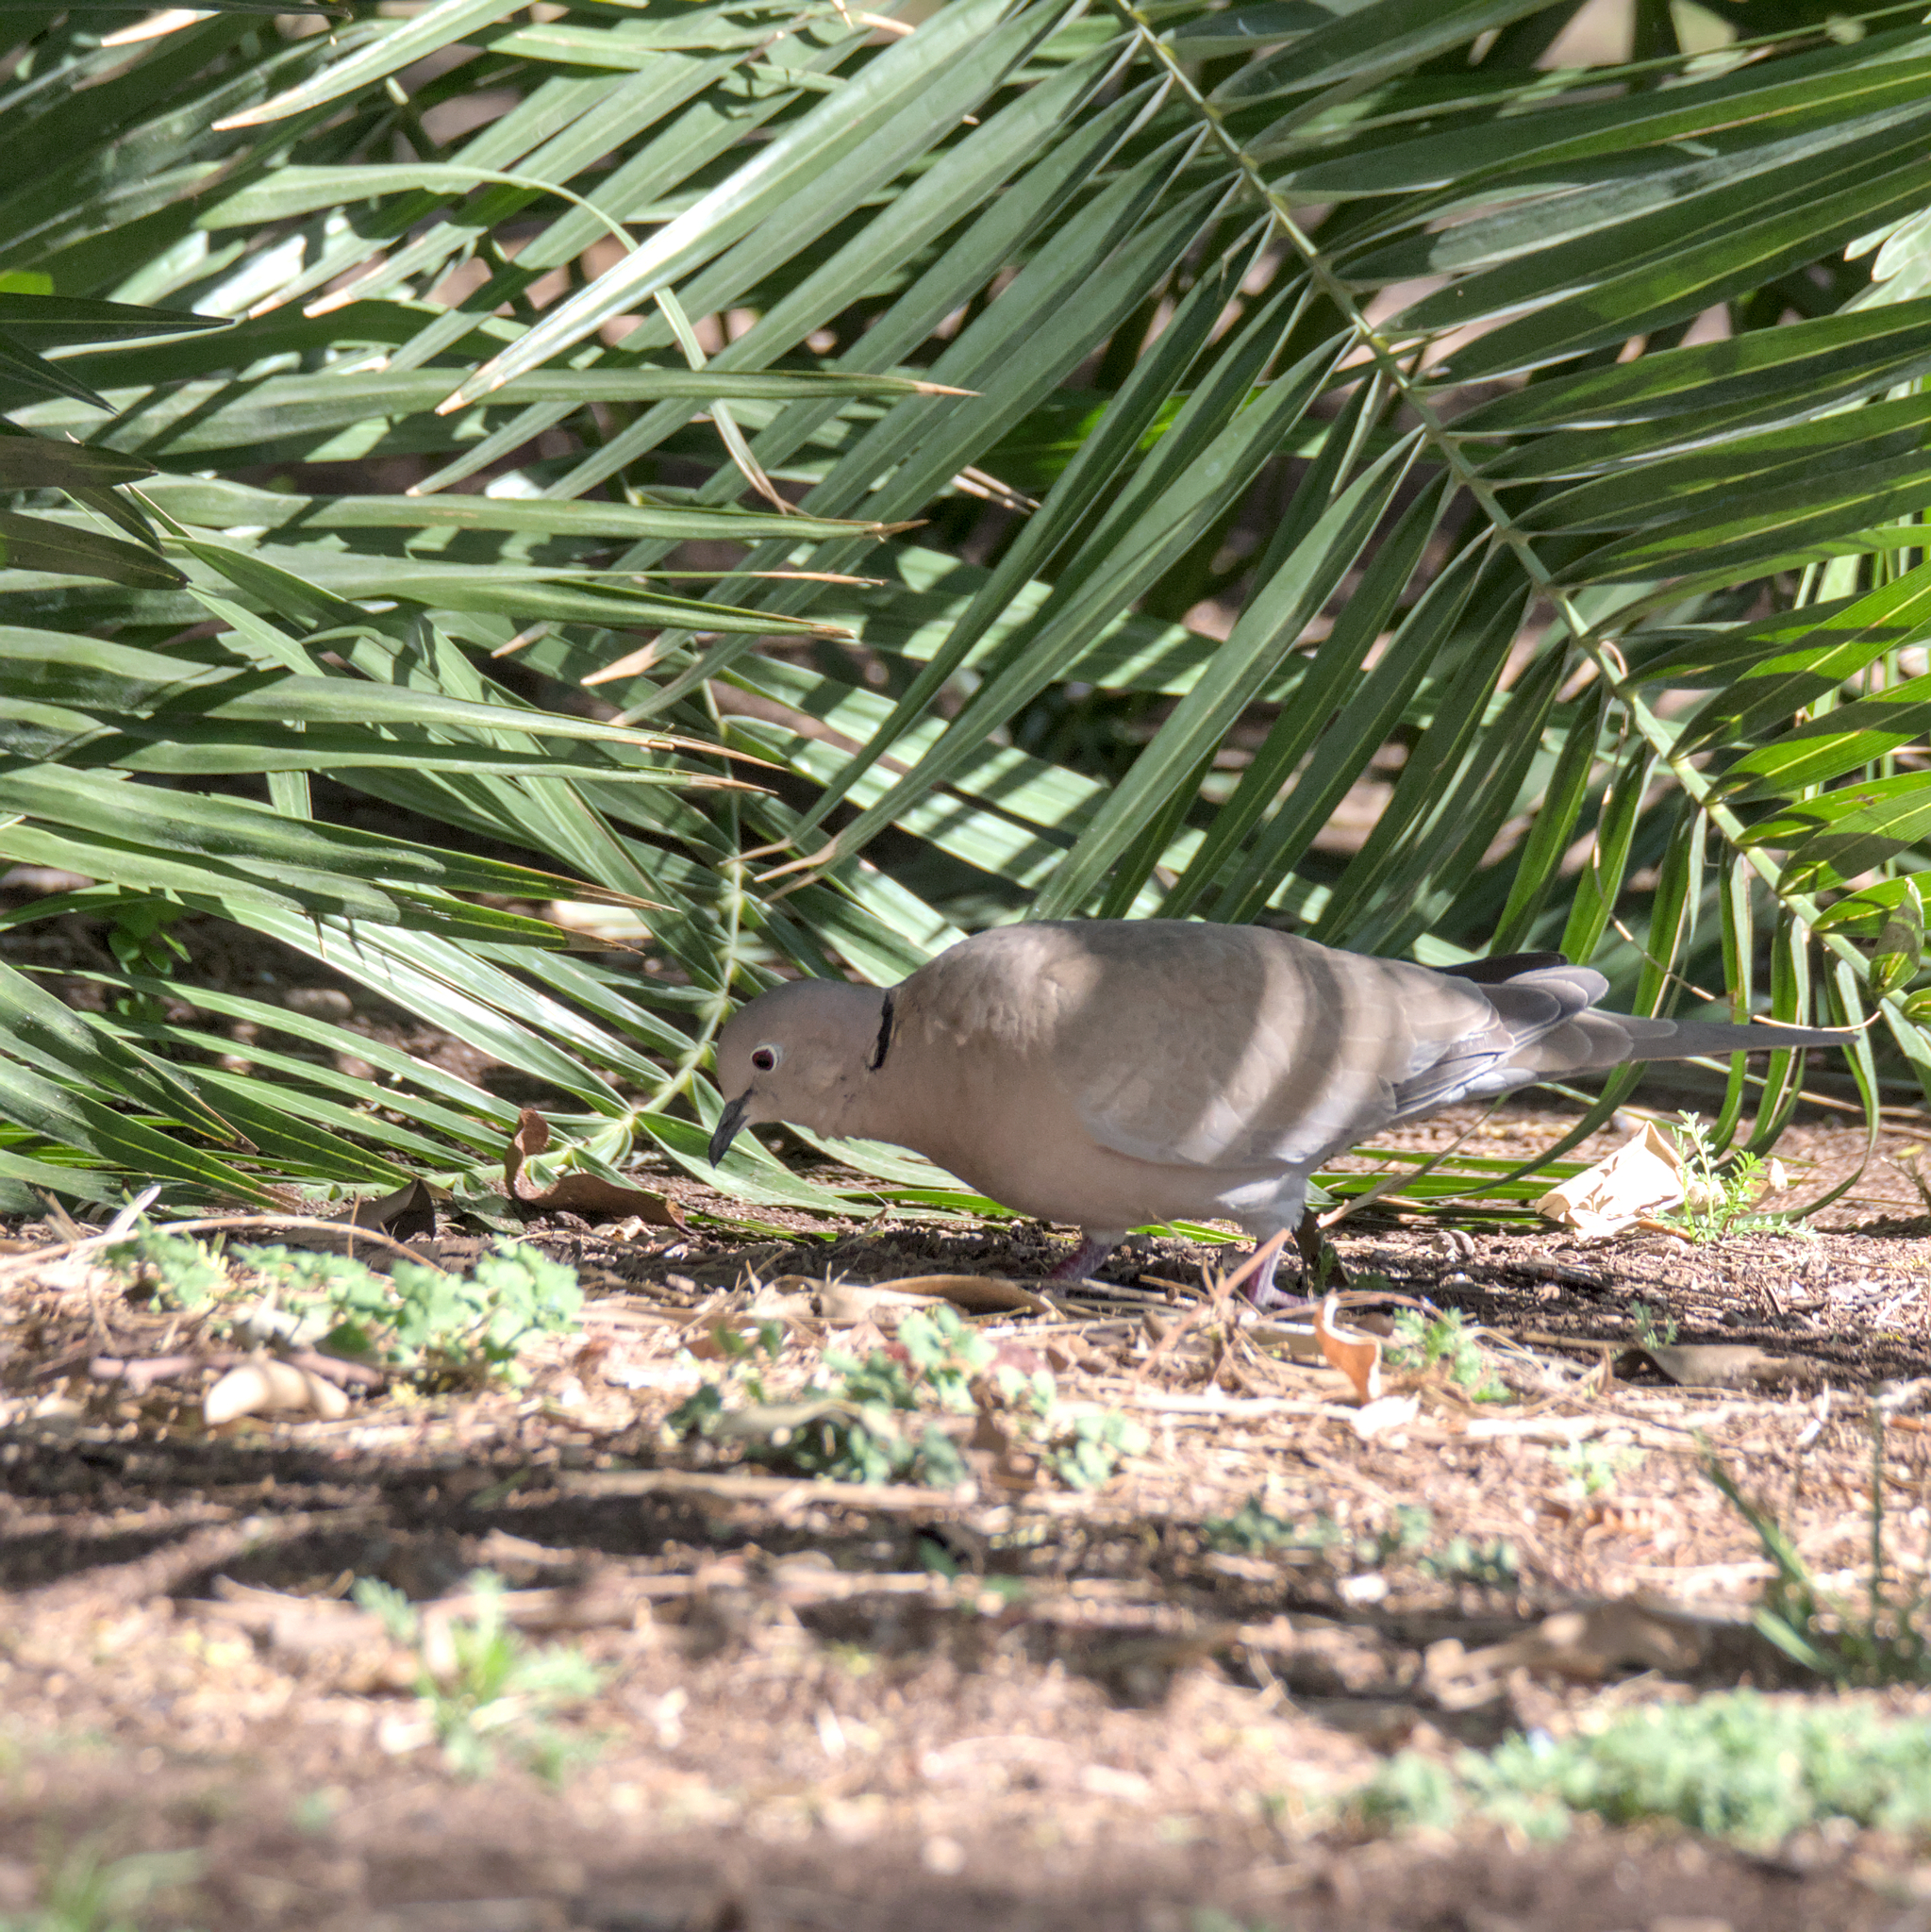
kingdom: Animalia
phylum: Chordata
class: Aves
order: Columbiformes
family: Columbidae
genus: Streptopelia
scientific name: Streptopelia decaocto
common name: Eurasian collared dove
